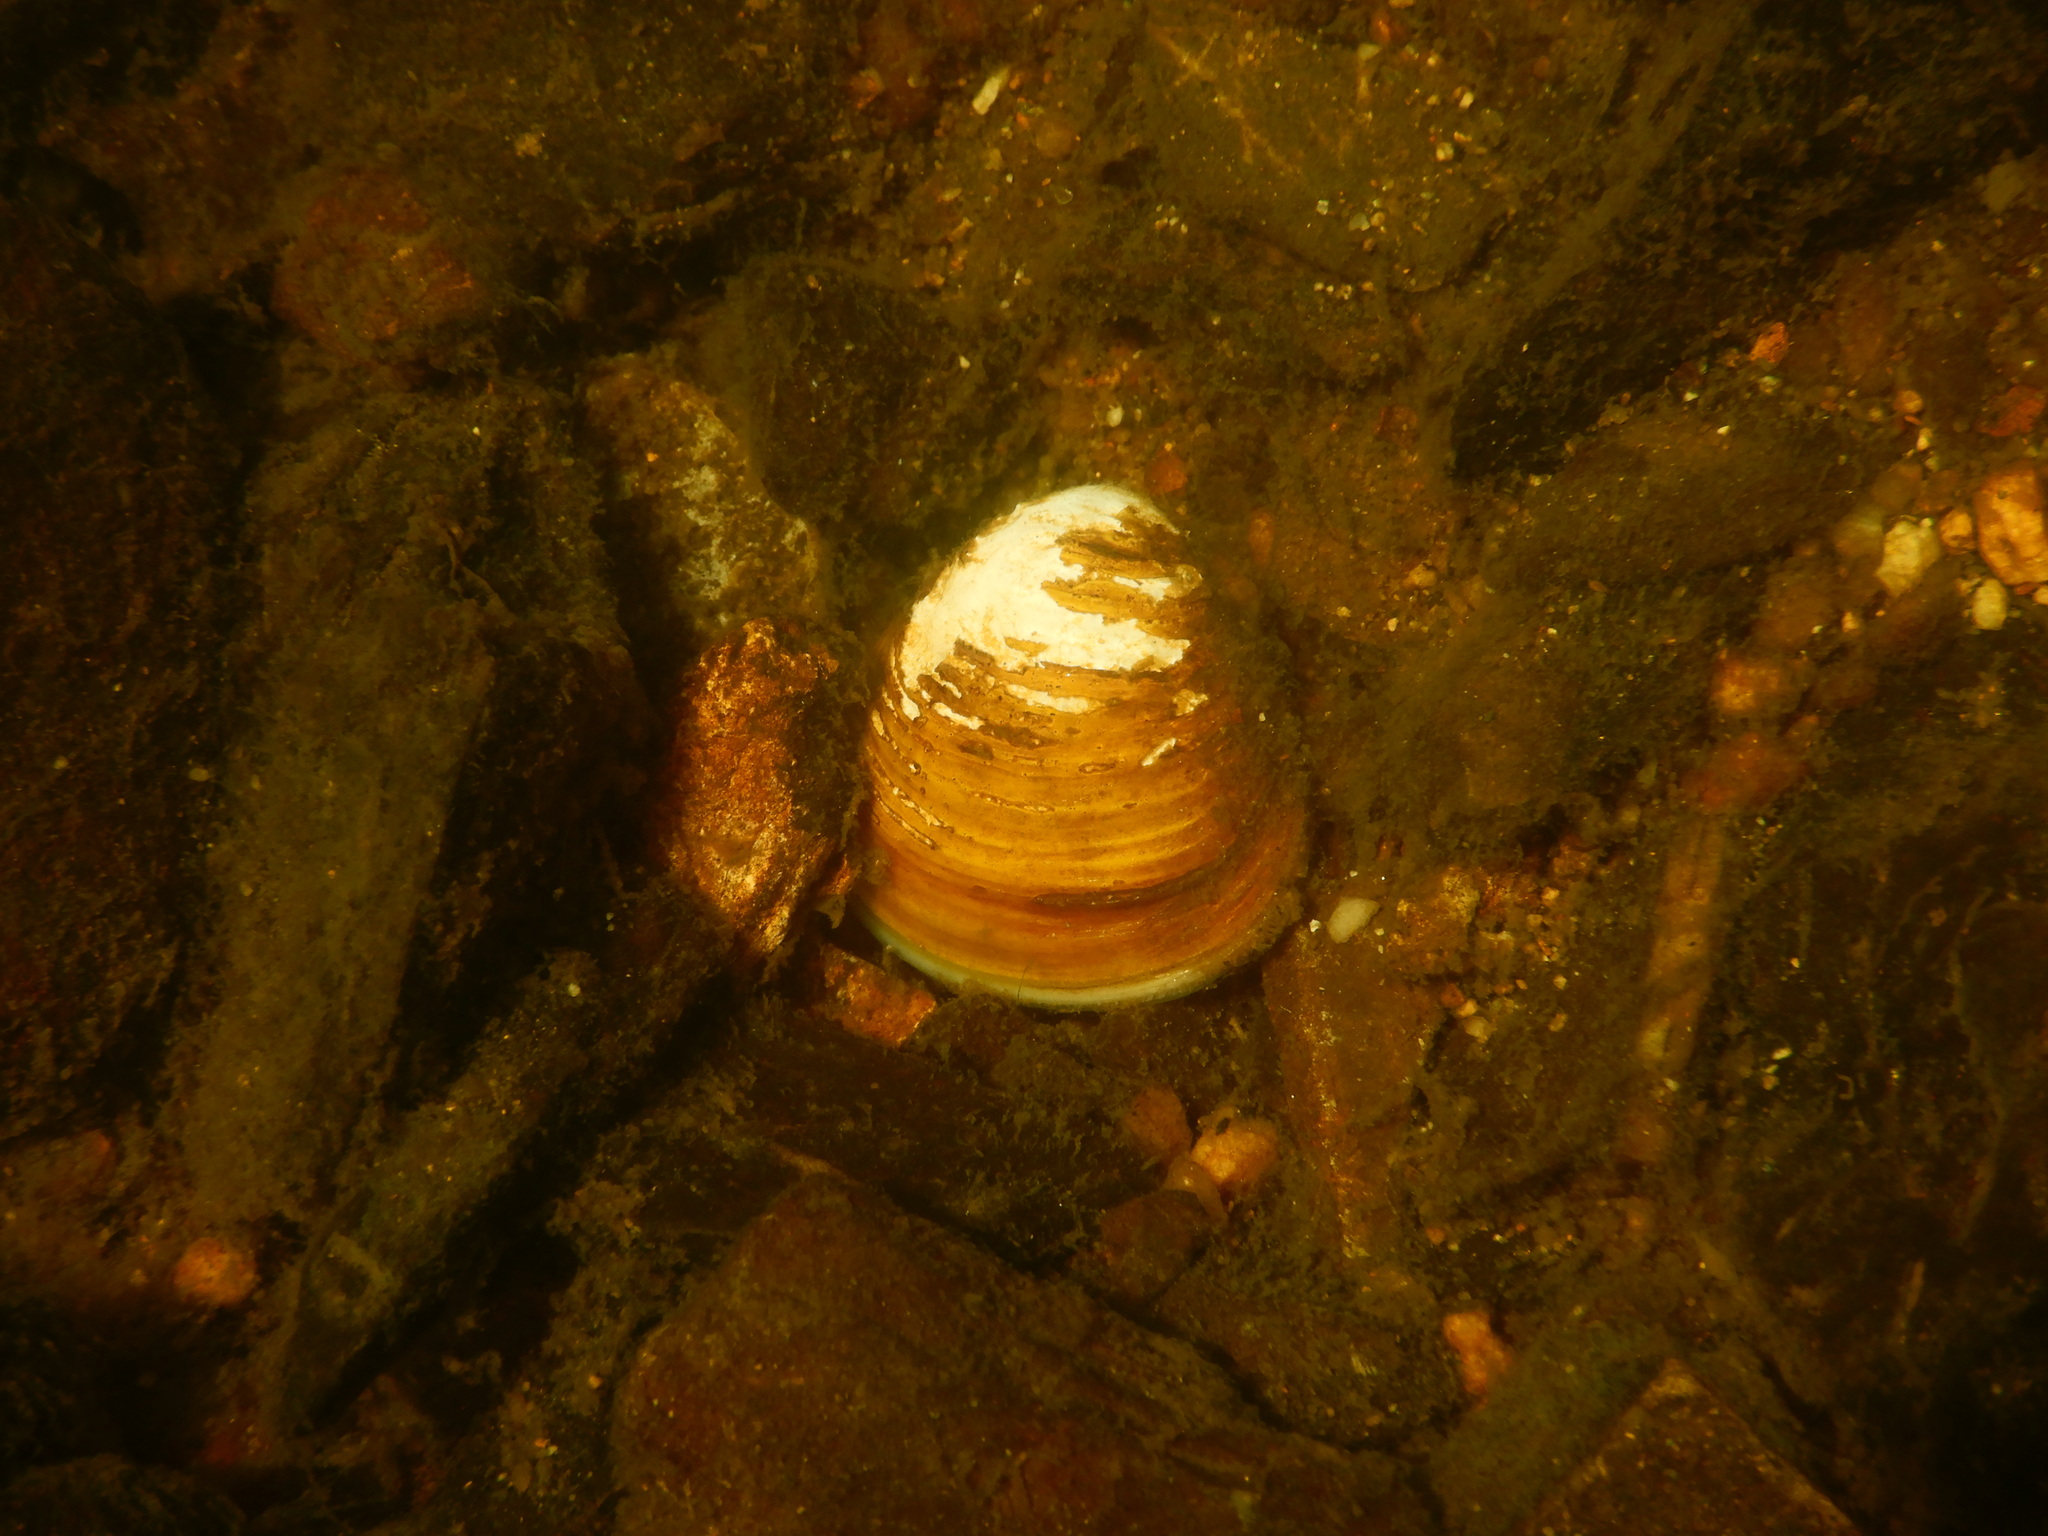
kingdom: Animalia
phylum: Mollusca
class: Bivalvia
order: Venerida
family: Cyrenidae
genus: Corbicula
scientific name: Corbicula fluminea
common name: Asian clam
